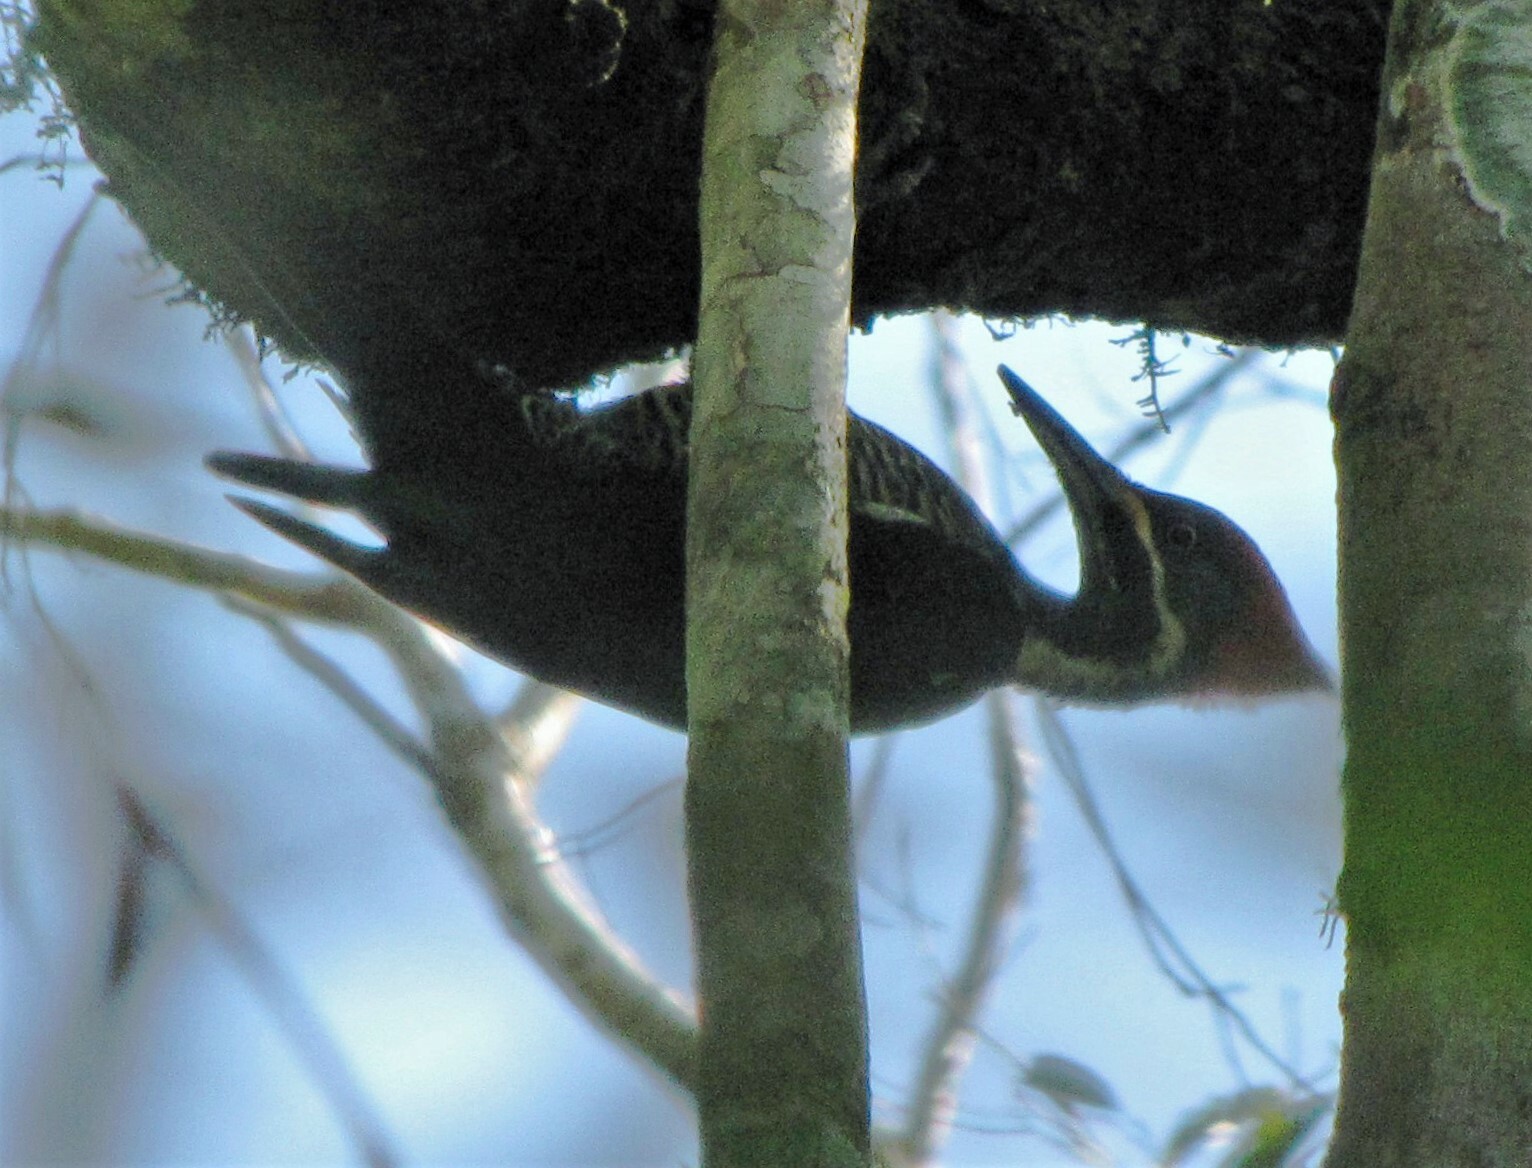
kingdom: Animalia
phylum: Chordata
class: Aves
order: Piciformes
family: Picidae
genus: Dryocopus
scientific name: Dryocopus lineatus
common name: Lineated woodpecker
